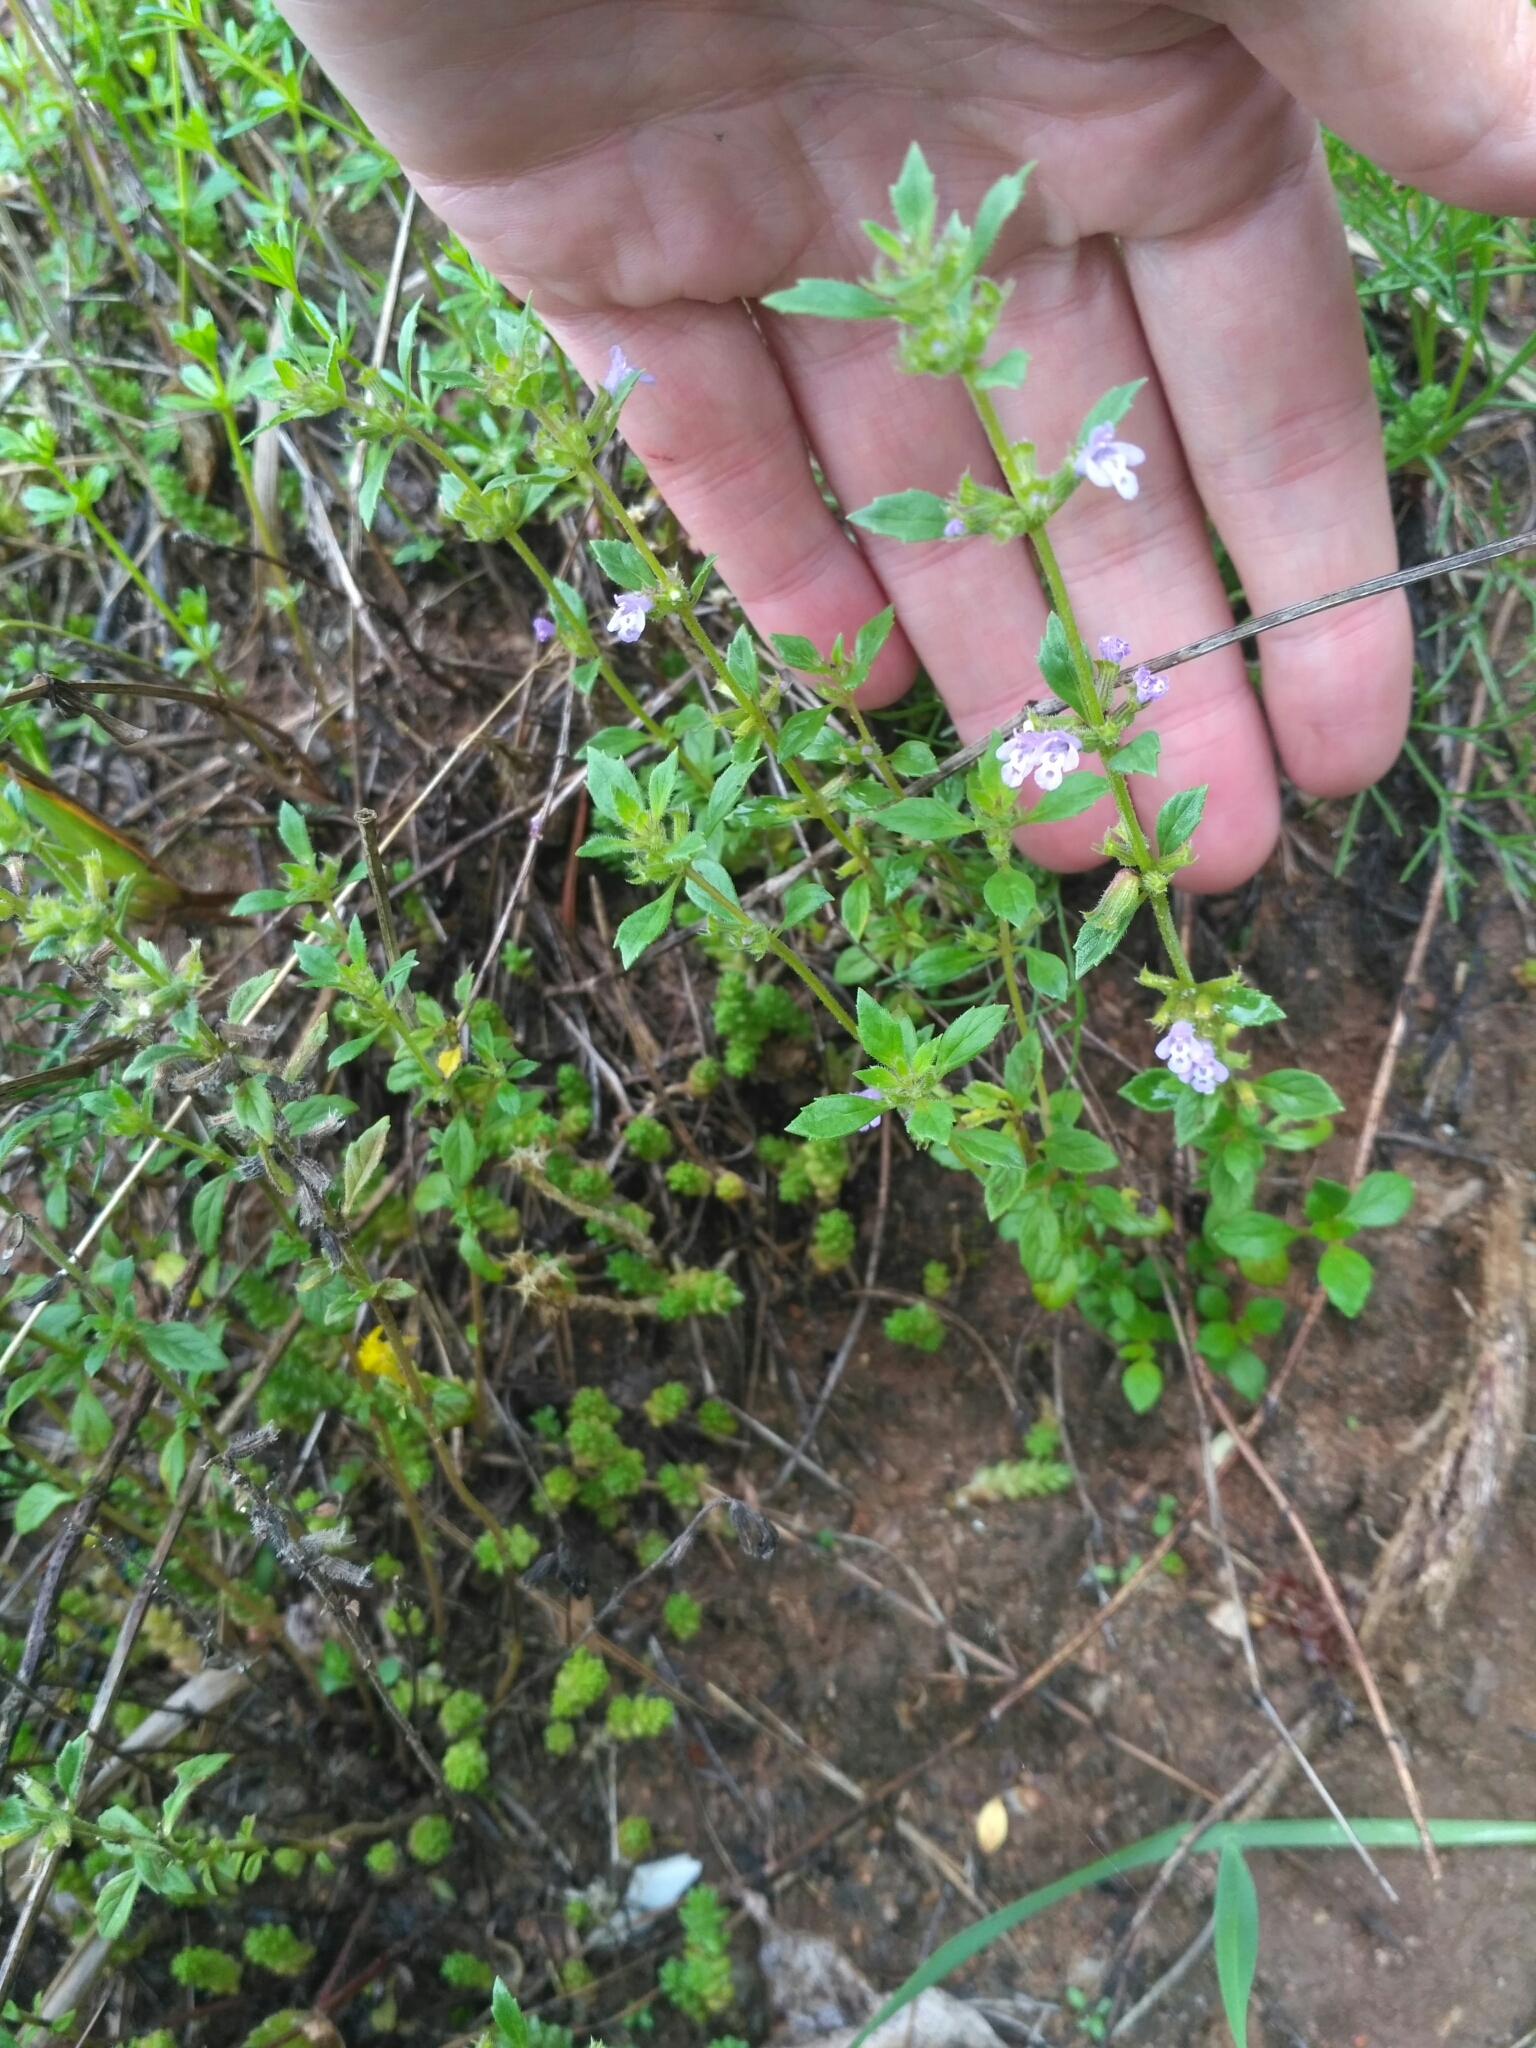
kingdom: Plantae
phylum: Tracheophyta
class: Magnoliopsida
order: Lamiales
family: Lamiaceae
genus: Clinopodium
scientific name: Clinopodium acinos
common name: Basil thyme
